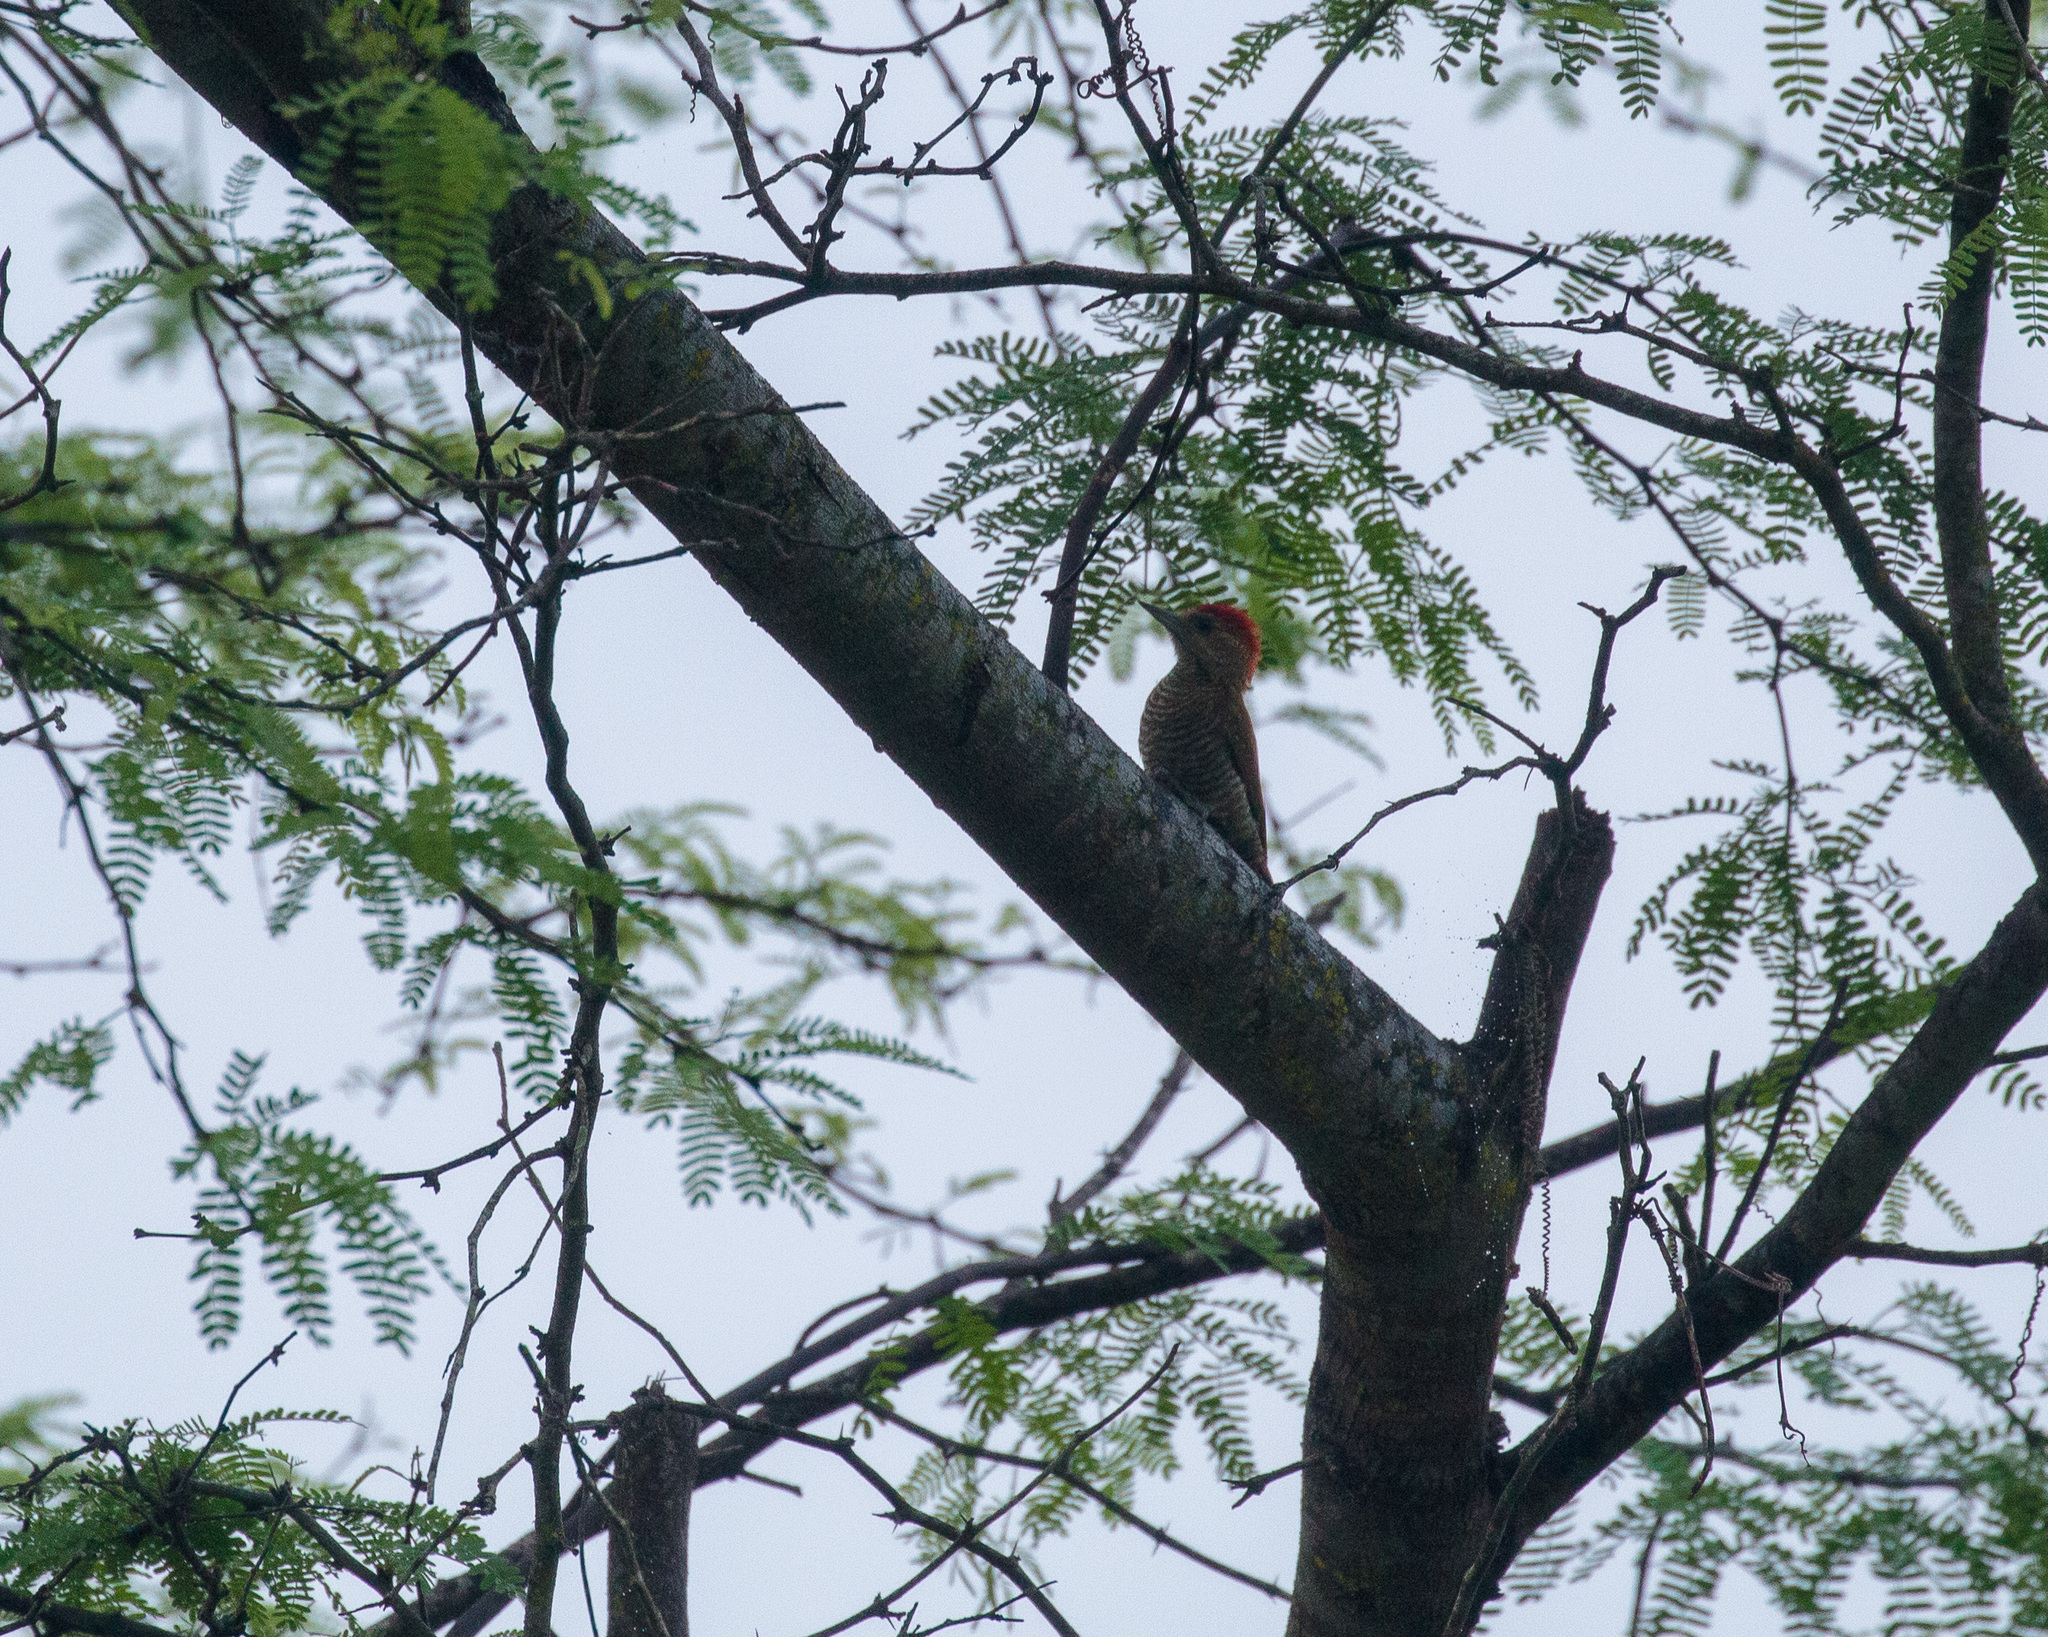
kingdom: Animalia
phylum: Chordata
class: Aves
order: Piciformes
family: Picidae
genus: Veniliornis
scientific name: Veniliornis passerinus
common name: Little woodpecker
